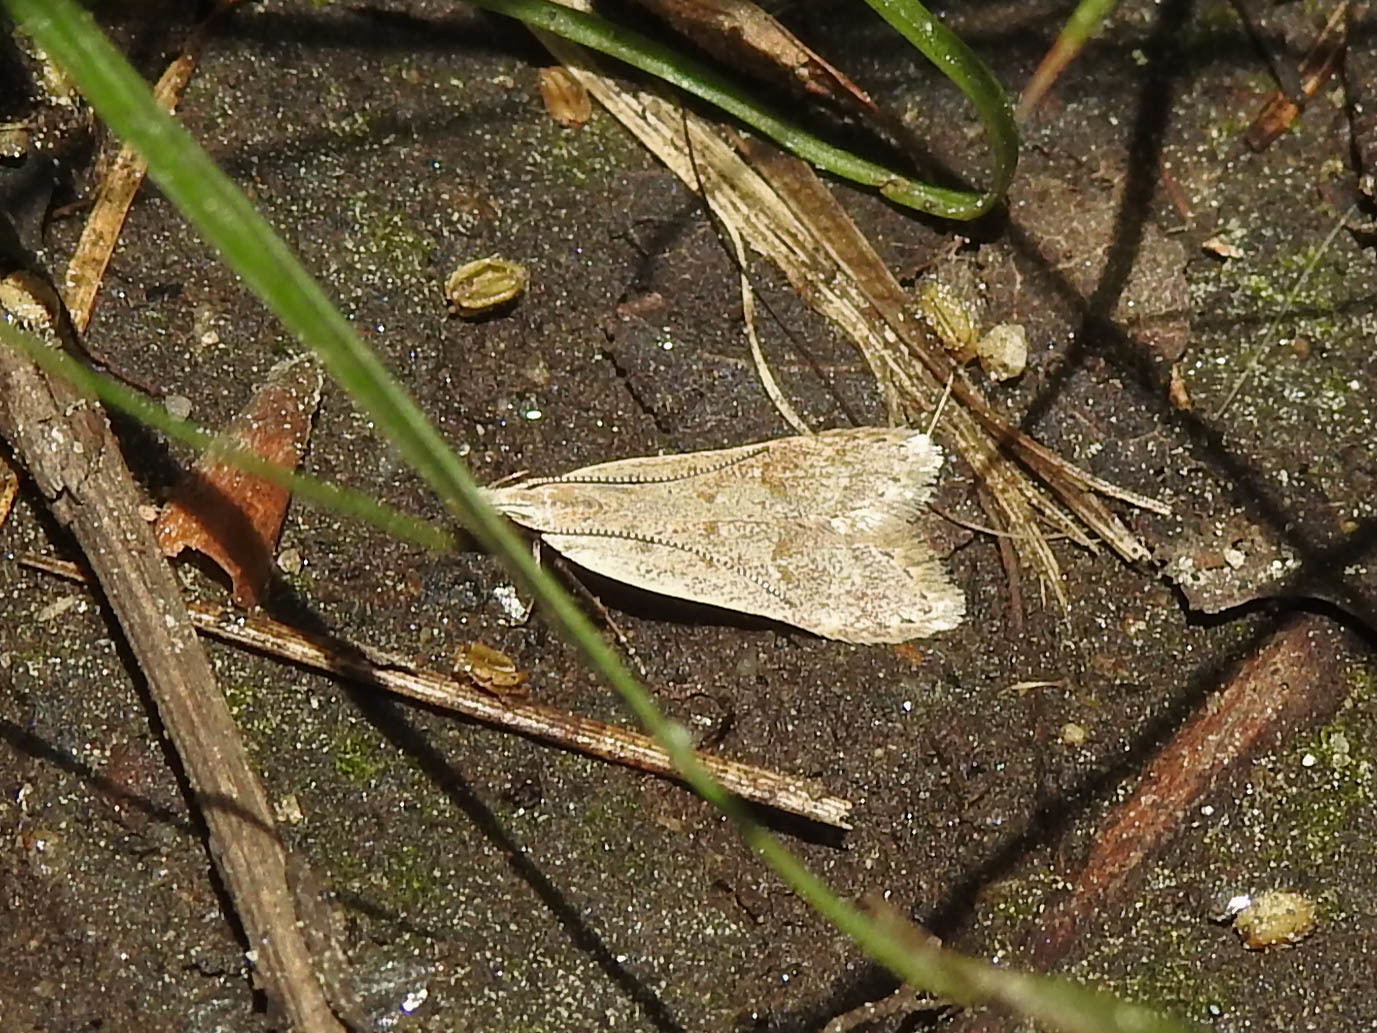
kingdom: Animalia
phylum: Arthropoda
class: Insecta
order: Lepidoptera
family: Gelechiidae
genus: Dichomeris
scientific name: Dichomeris punctidiscellus
